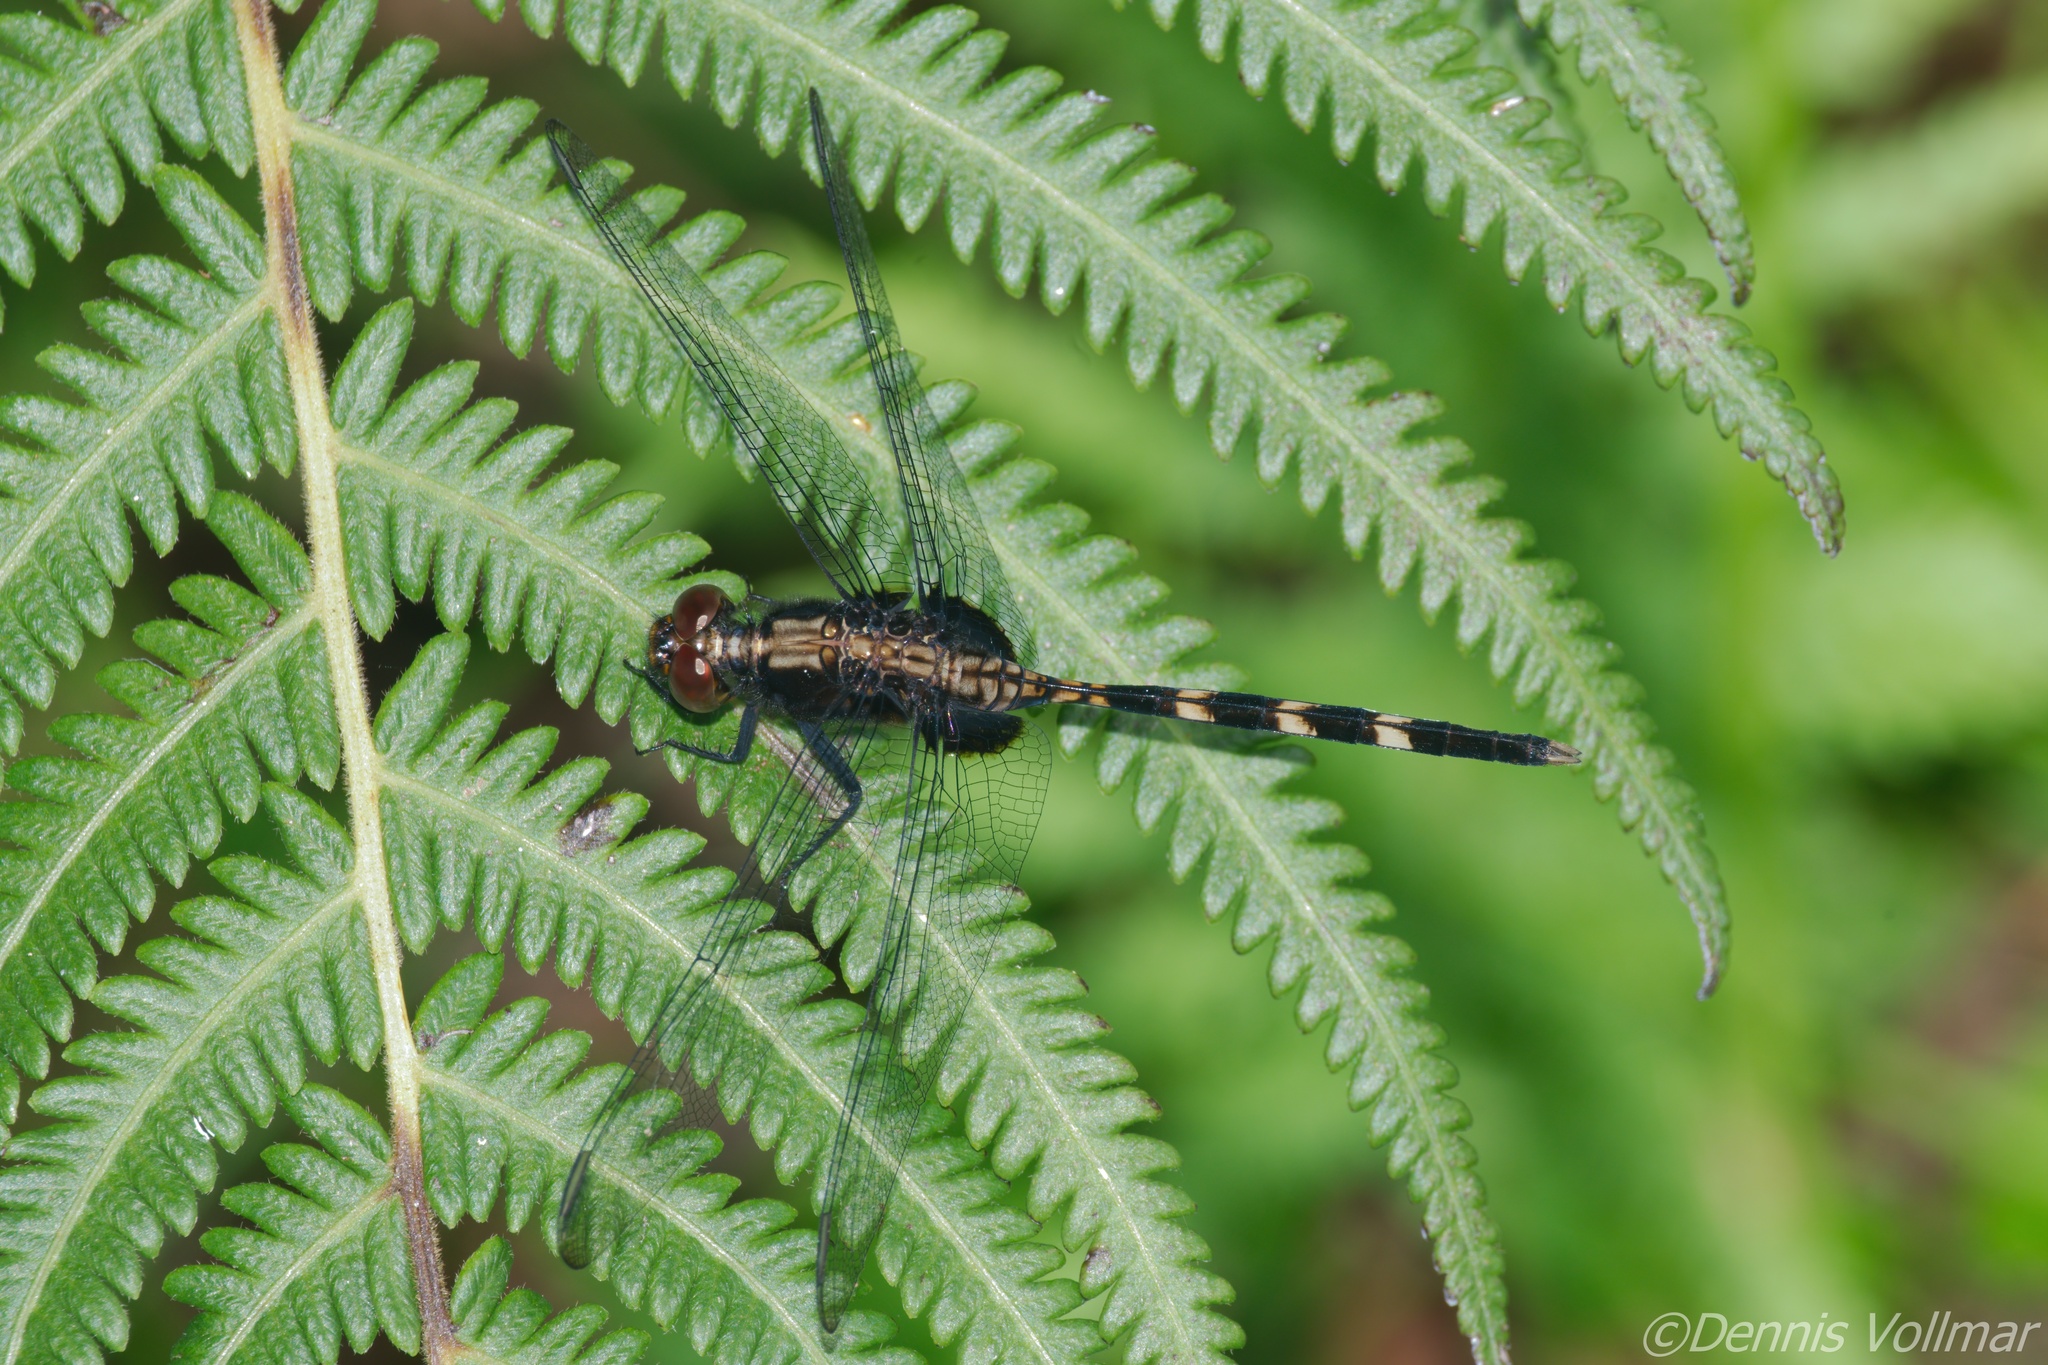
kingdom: Animalia
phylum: Arthropoda
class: Insecta
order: Odonata
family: Libellulidae
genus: Erythemis
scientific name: Erythemis plebeja
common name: Pin-tailed pondhawk
